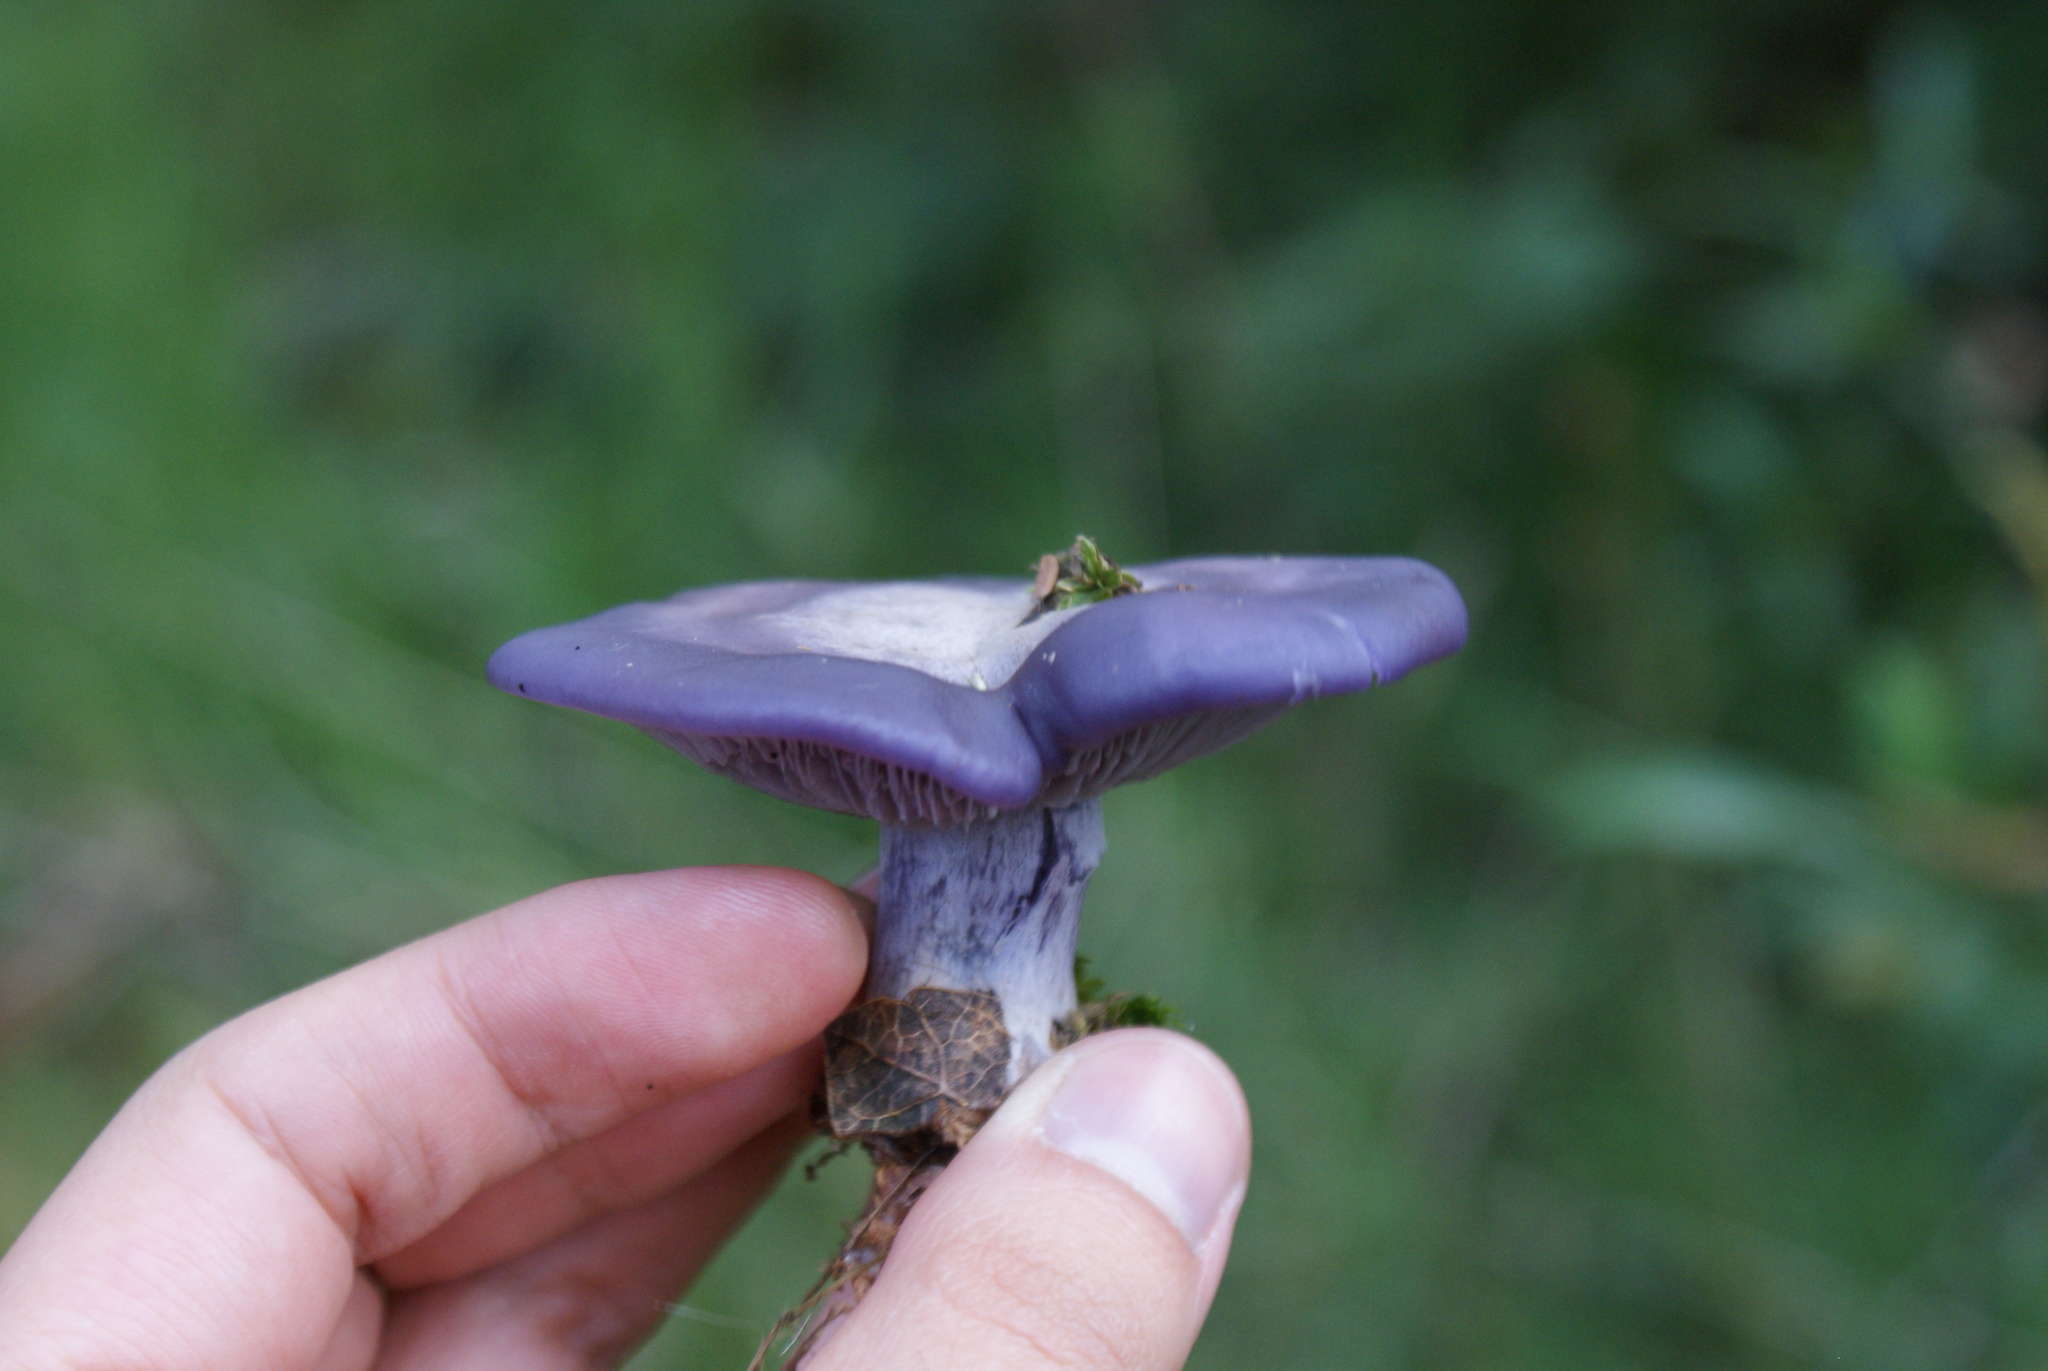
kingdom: Fungi
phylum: Basidiomycota
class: Agaricomycetes
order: Agaricales
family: Tricholomataceae
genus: Collybia
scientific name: Collybia
